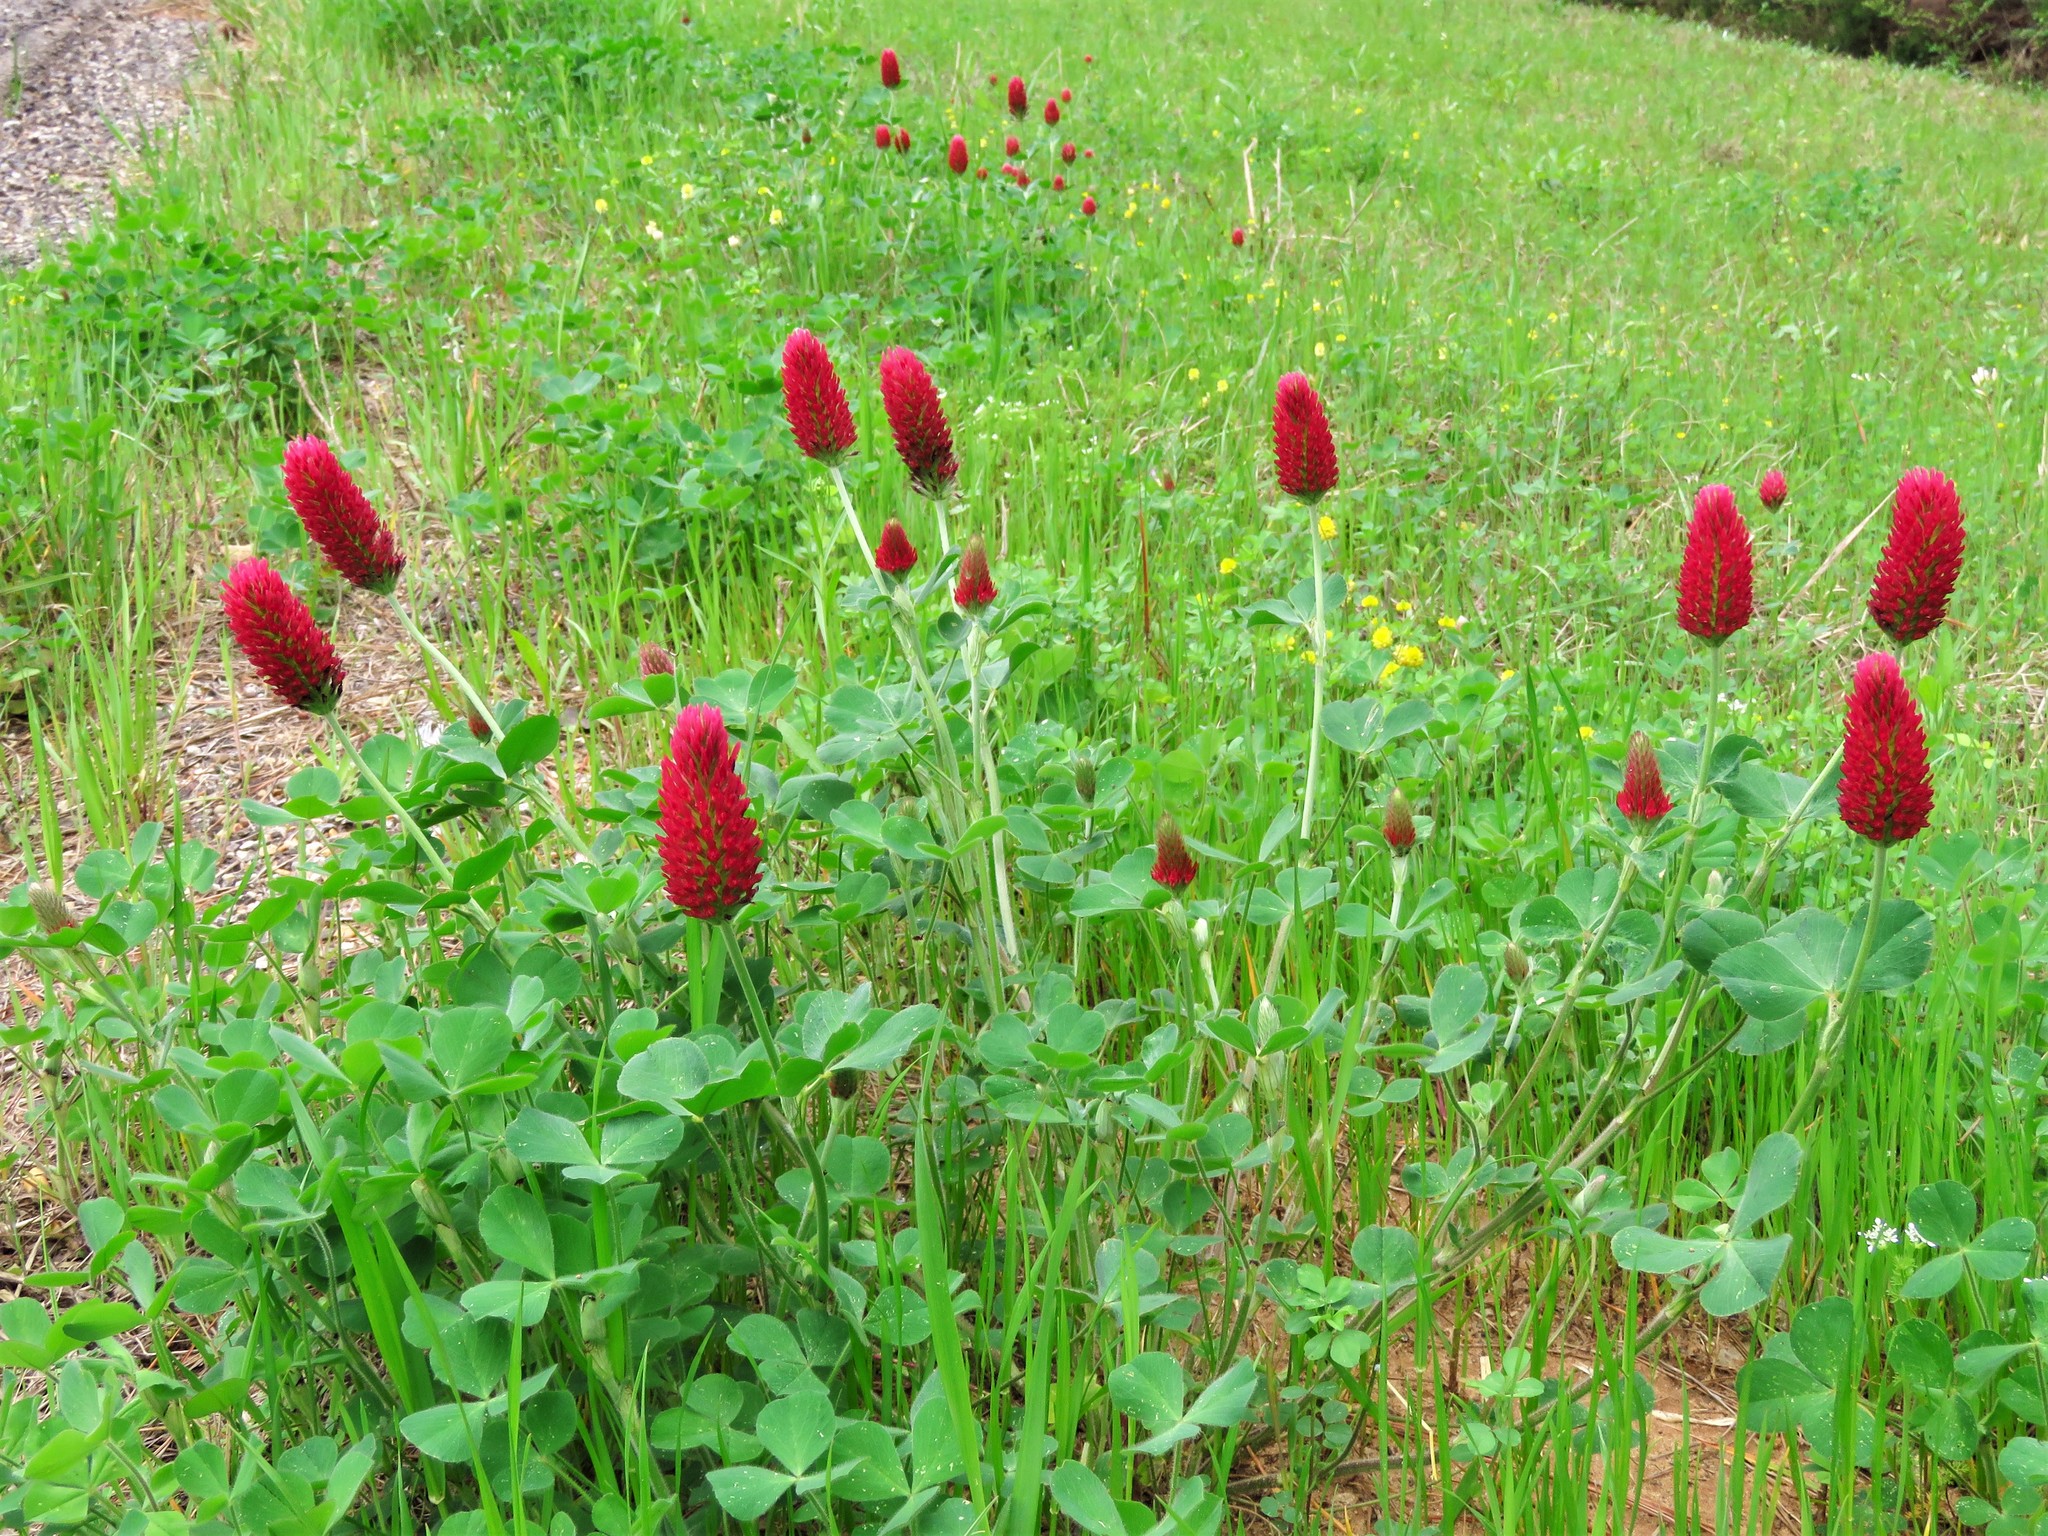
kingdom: Plantae
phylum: Tracheophyta
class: Magnoliopsida
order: Fabales
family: Fabaceae
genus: Trifolium
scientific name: Trifolium incarnatum
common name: Crimson clover
